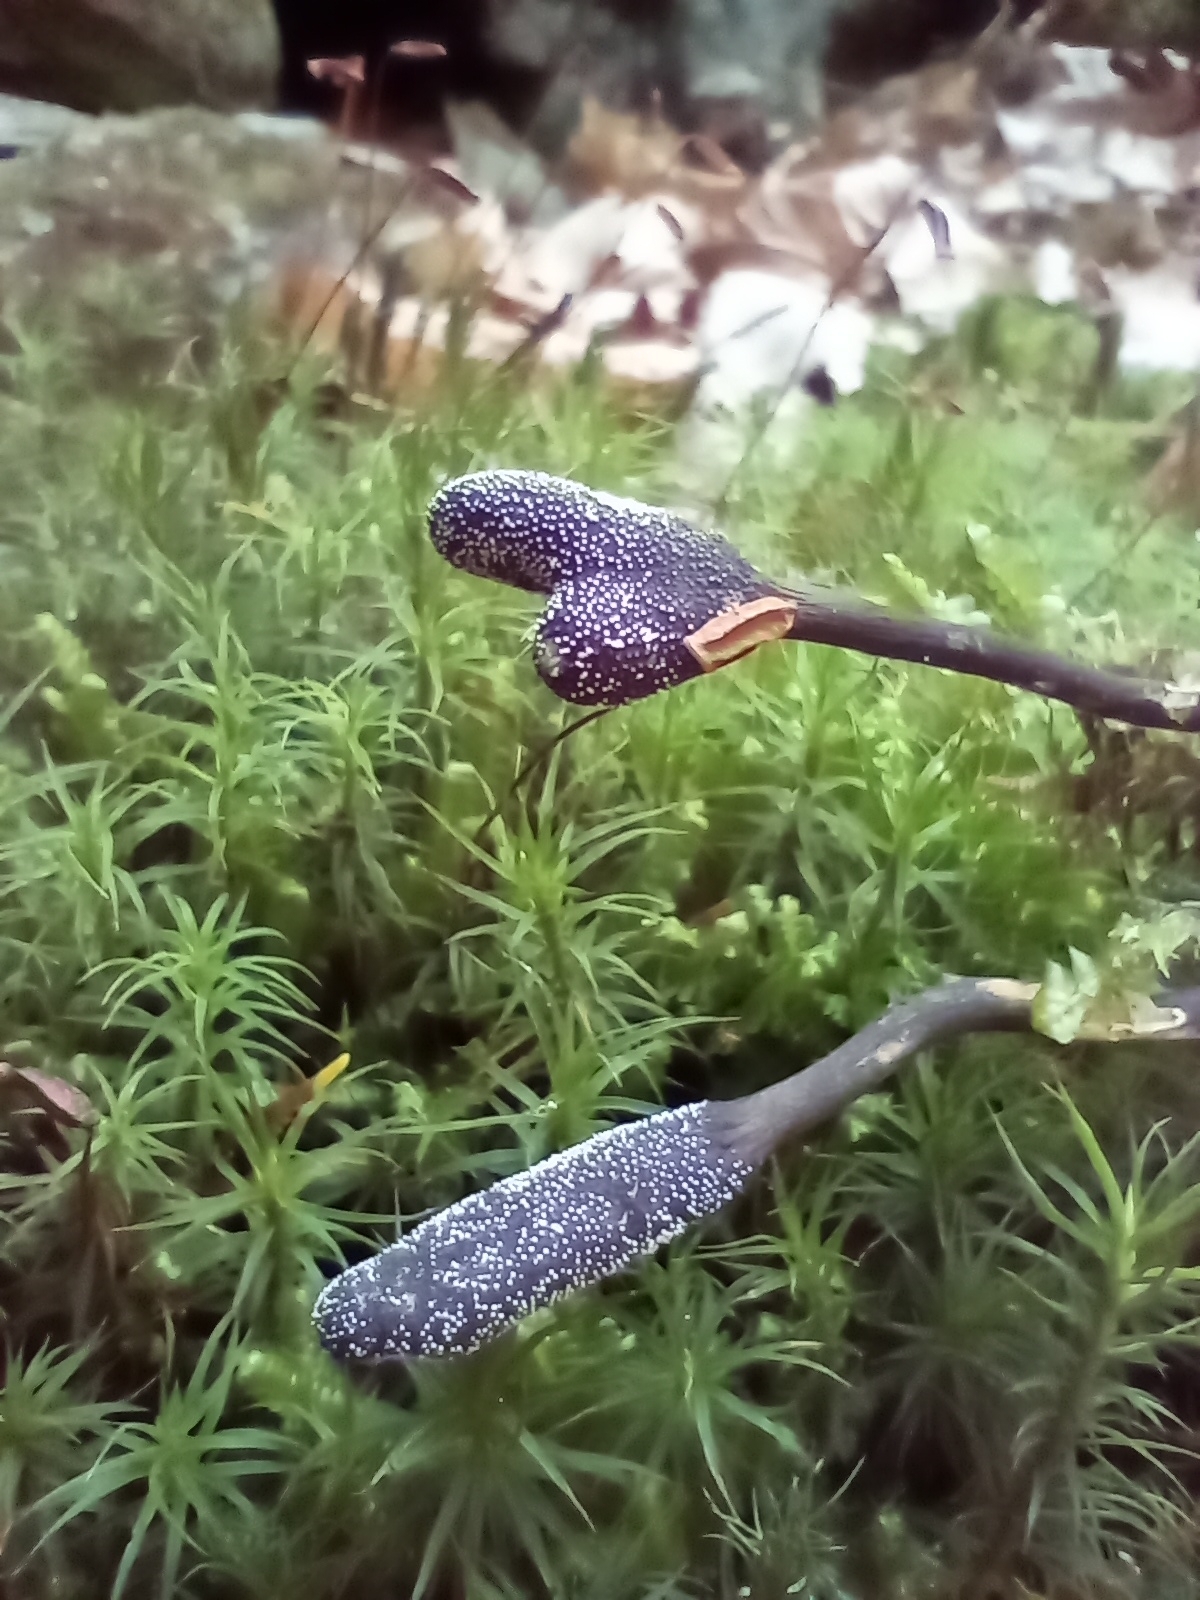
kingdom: Fungi
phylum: Ascomycota
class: Sordariomycetes
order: Hypocreales
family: Ophiocordycipitaceae
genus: Tolypocladium
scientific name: Tolypocladium ophioglossoides
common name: Snaketongue truffleclub
